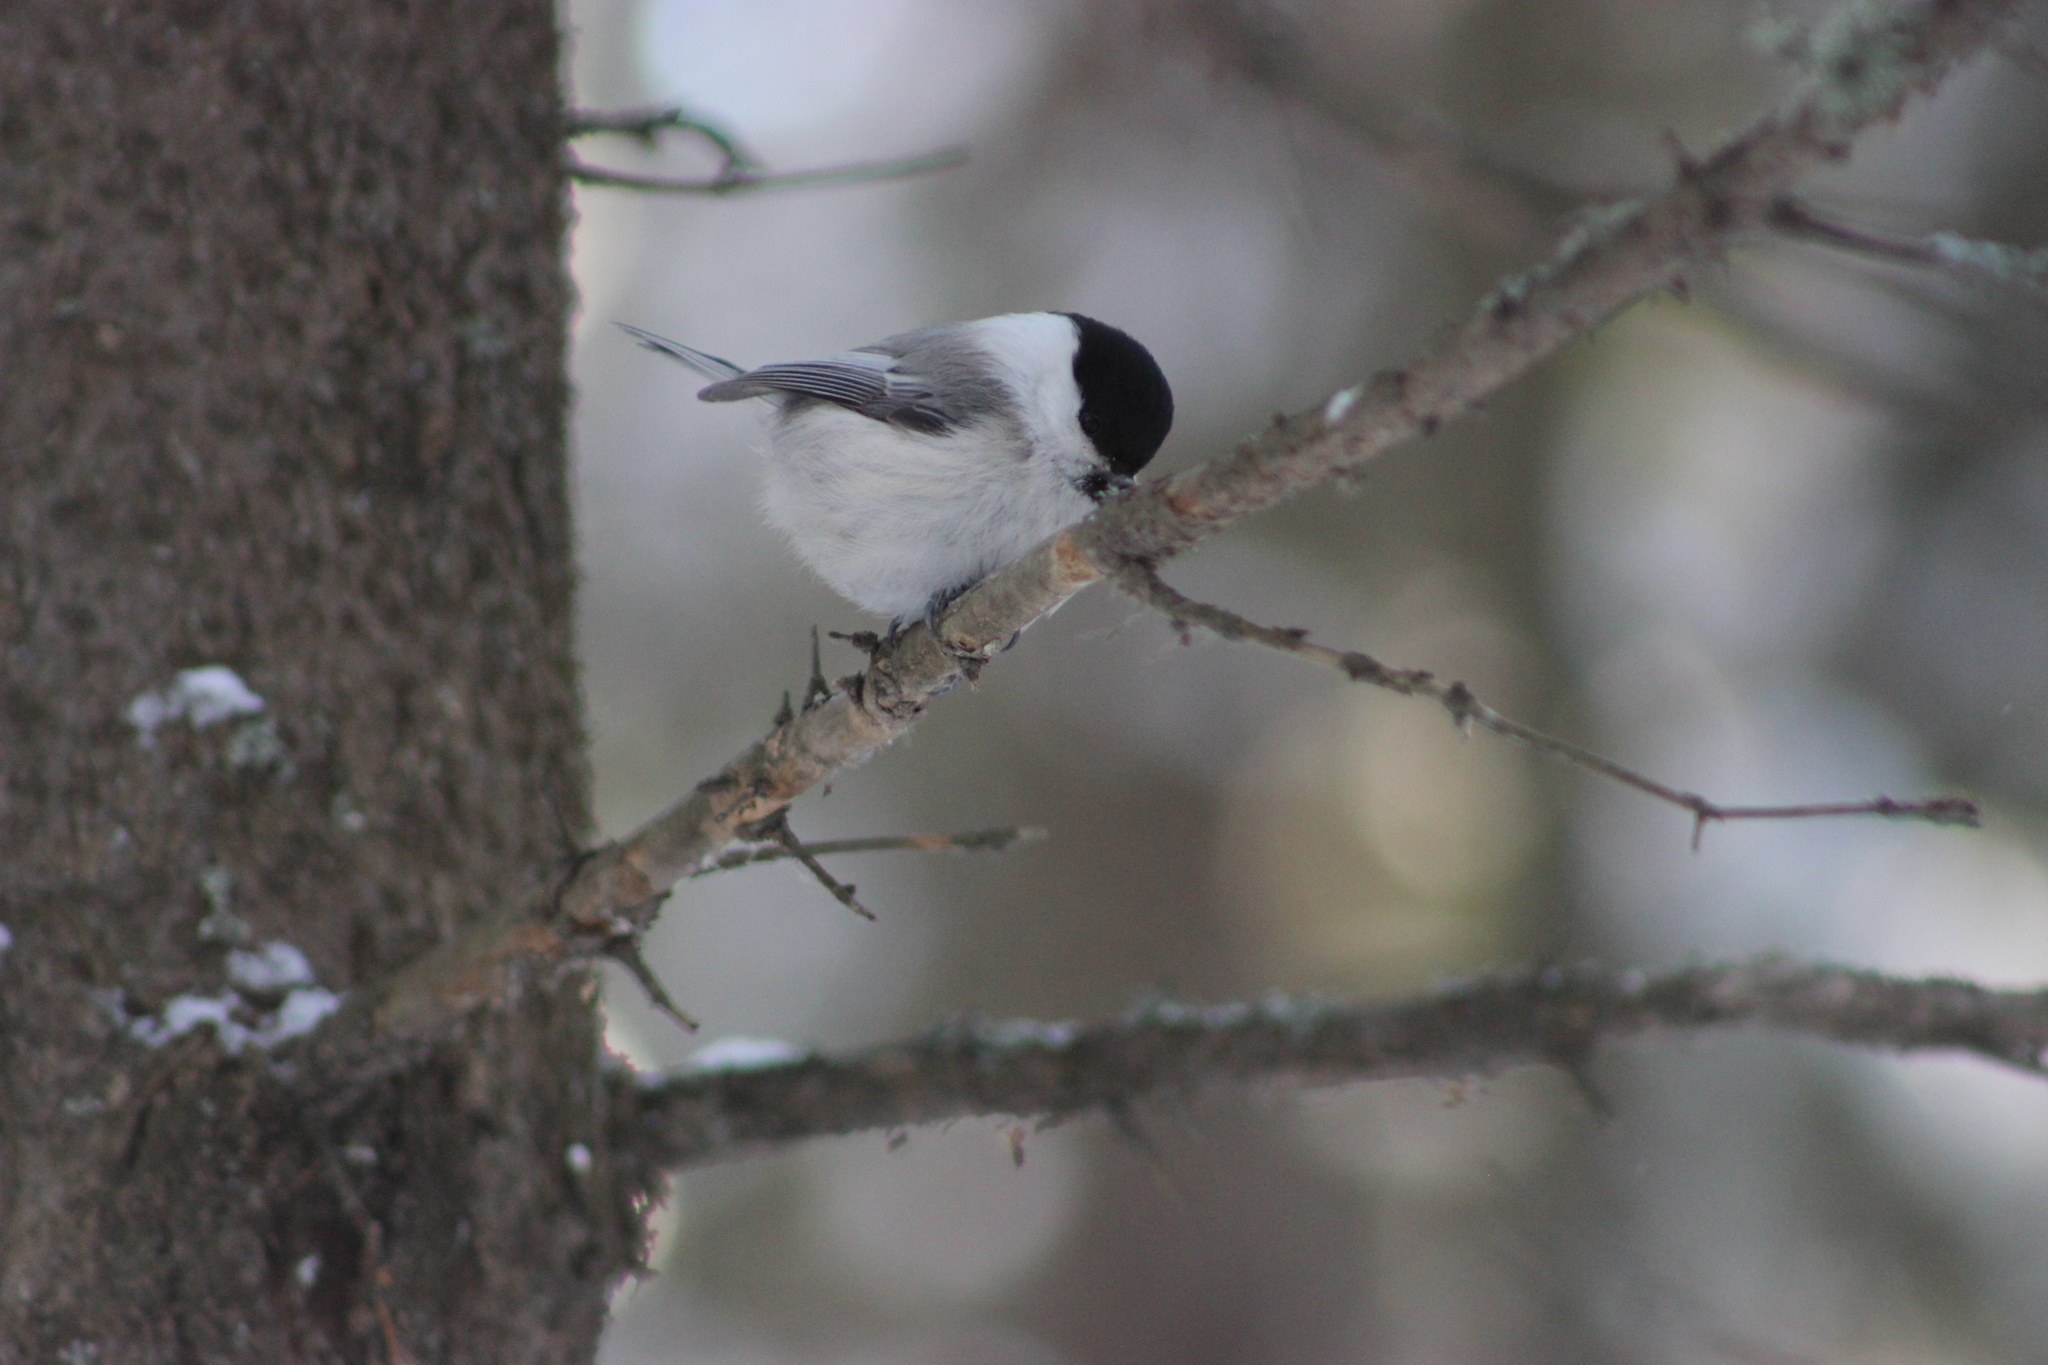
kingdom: Animalia
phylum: Chordata
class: Aves
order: Passeriformes
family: Paridae
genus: Poecile
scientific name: Poecile montanus
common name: Willow tit
